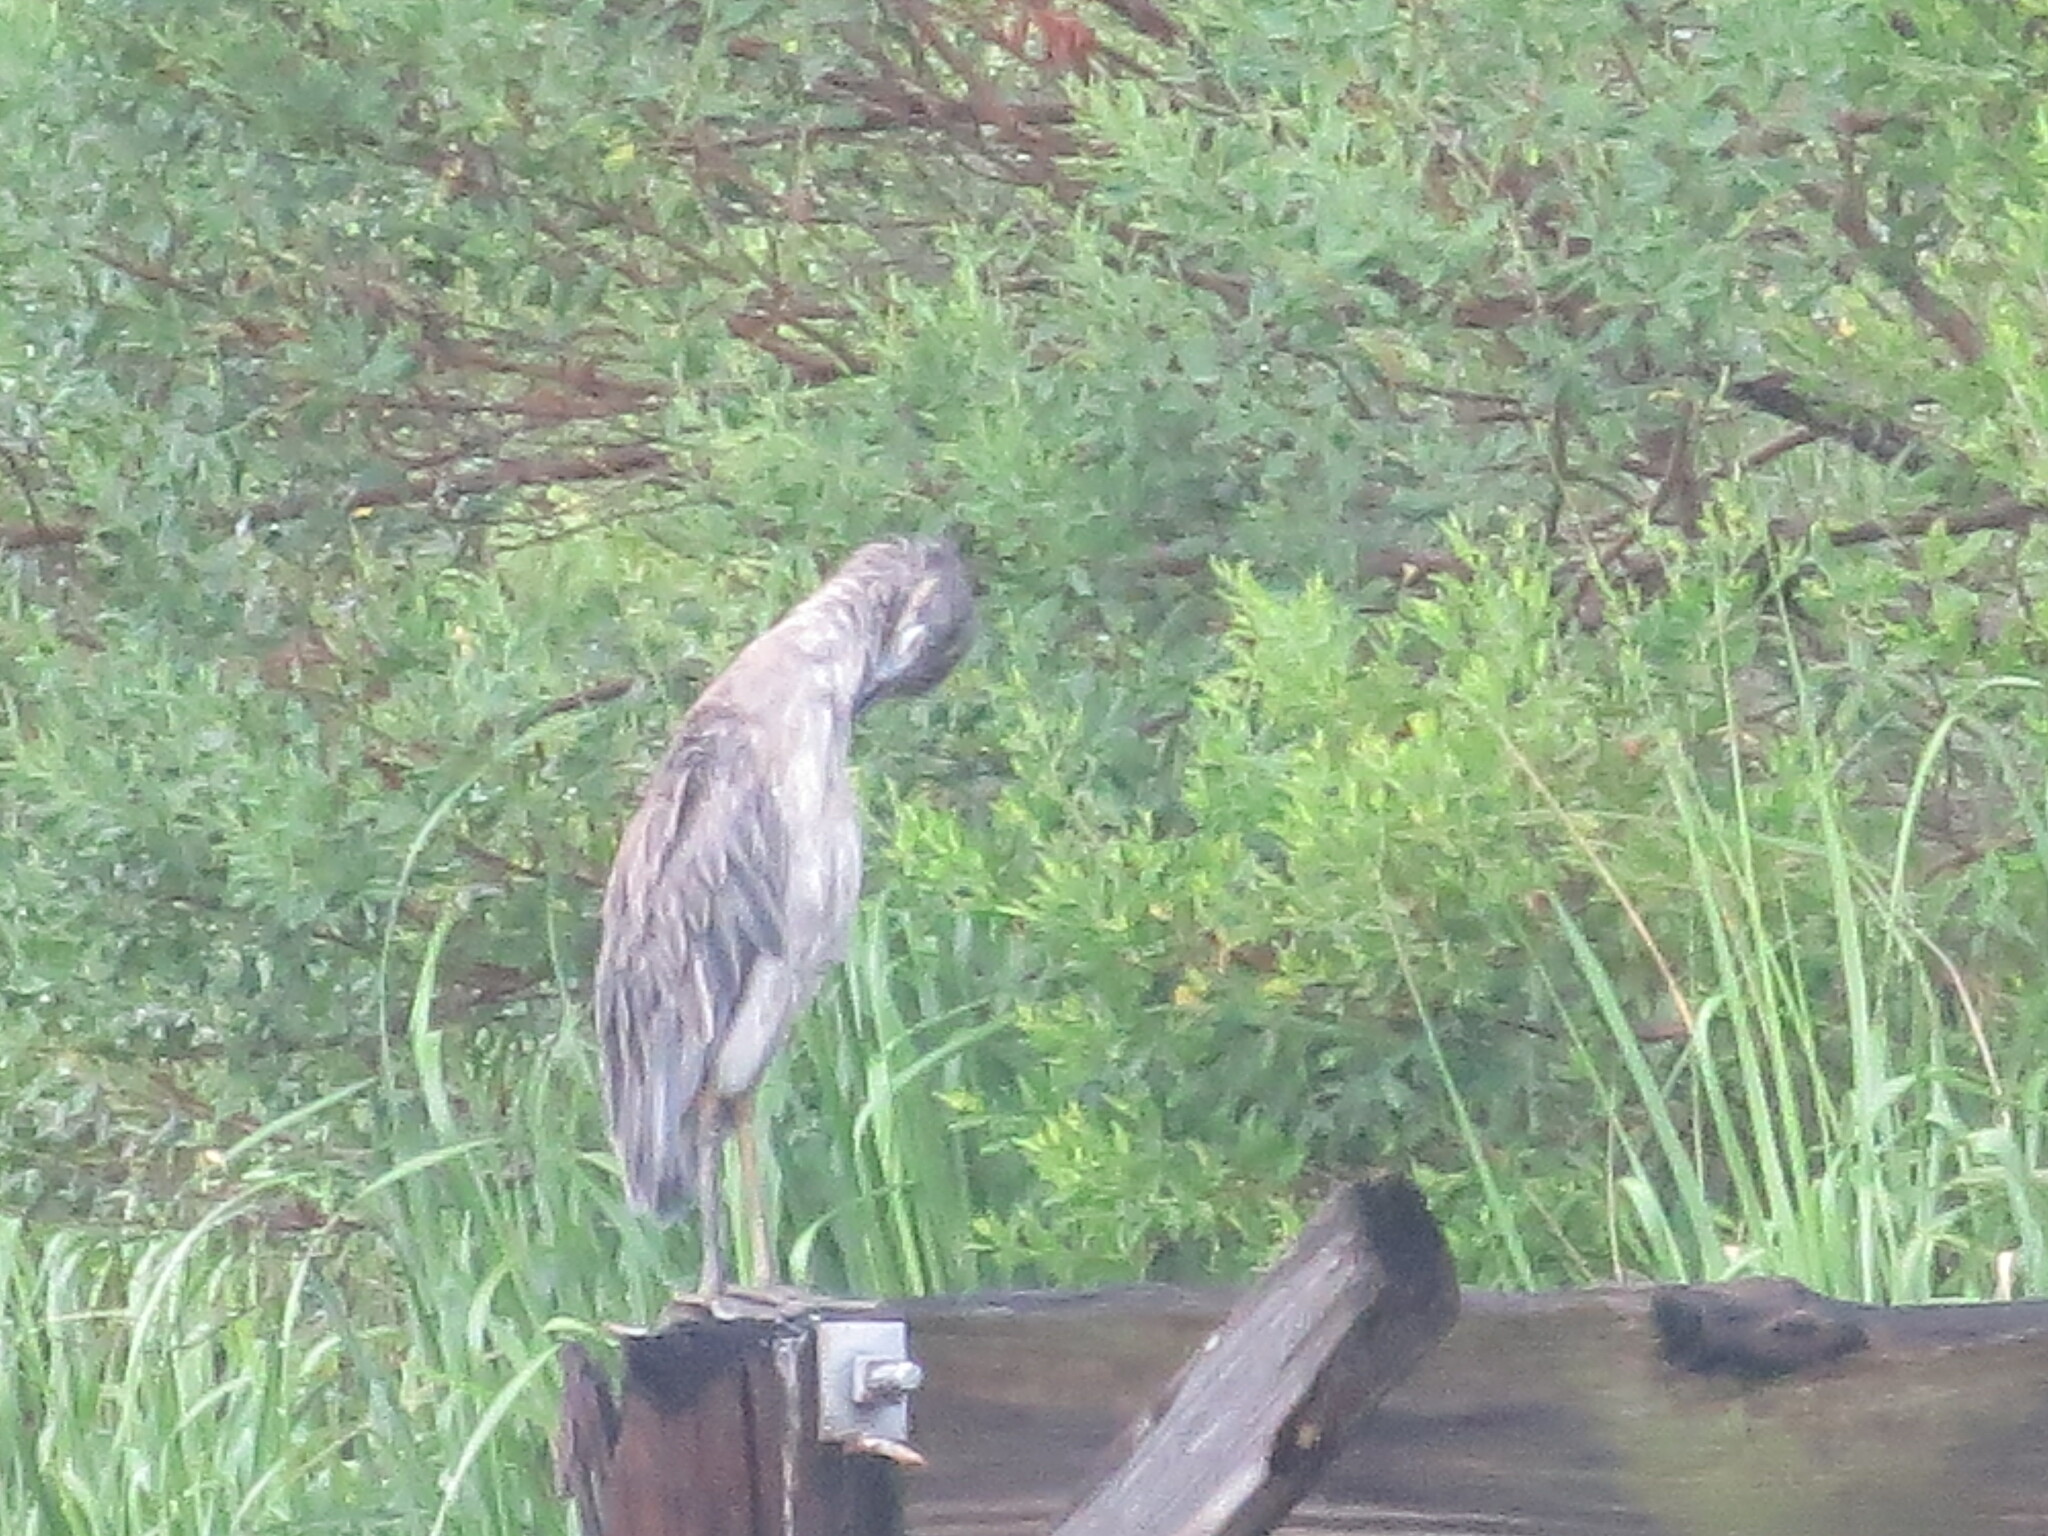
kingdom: Animalia
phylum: Chordata
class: Aves
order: Pelecaniformes
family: Ardeidae
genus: Nyctanassa
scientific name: Nyctanassa violacea
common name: Yellow-crowned night heron
